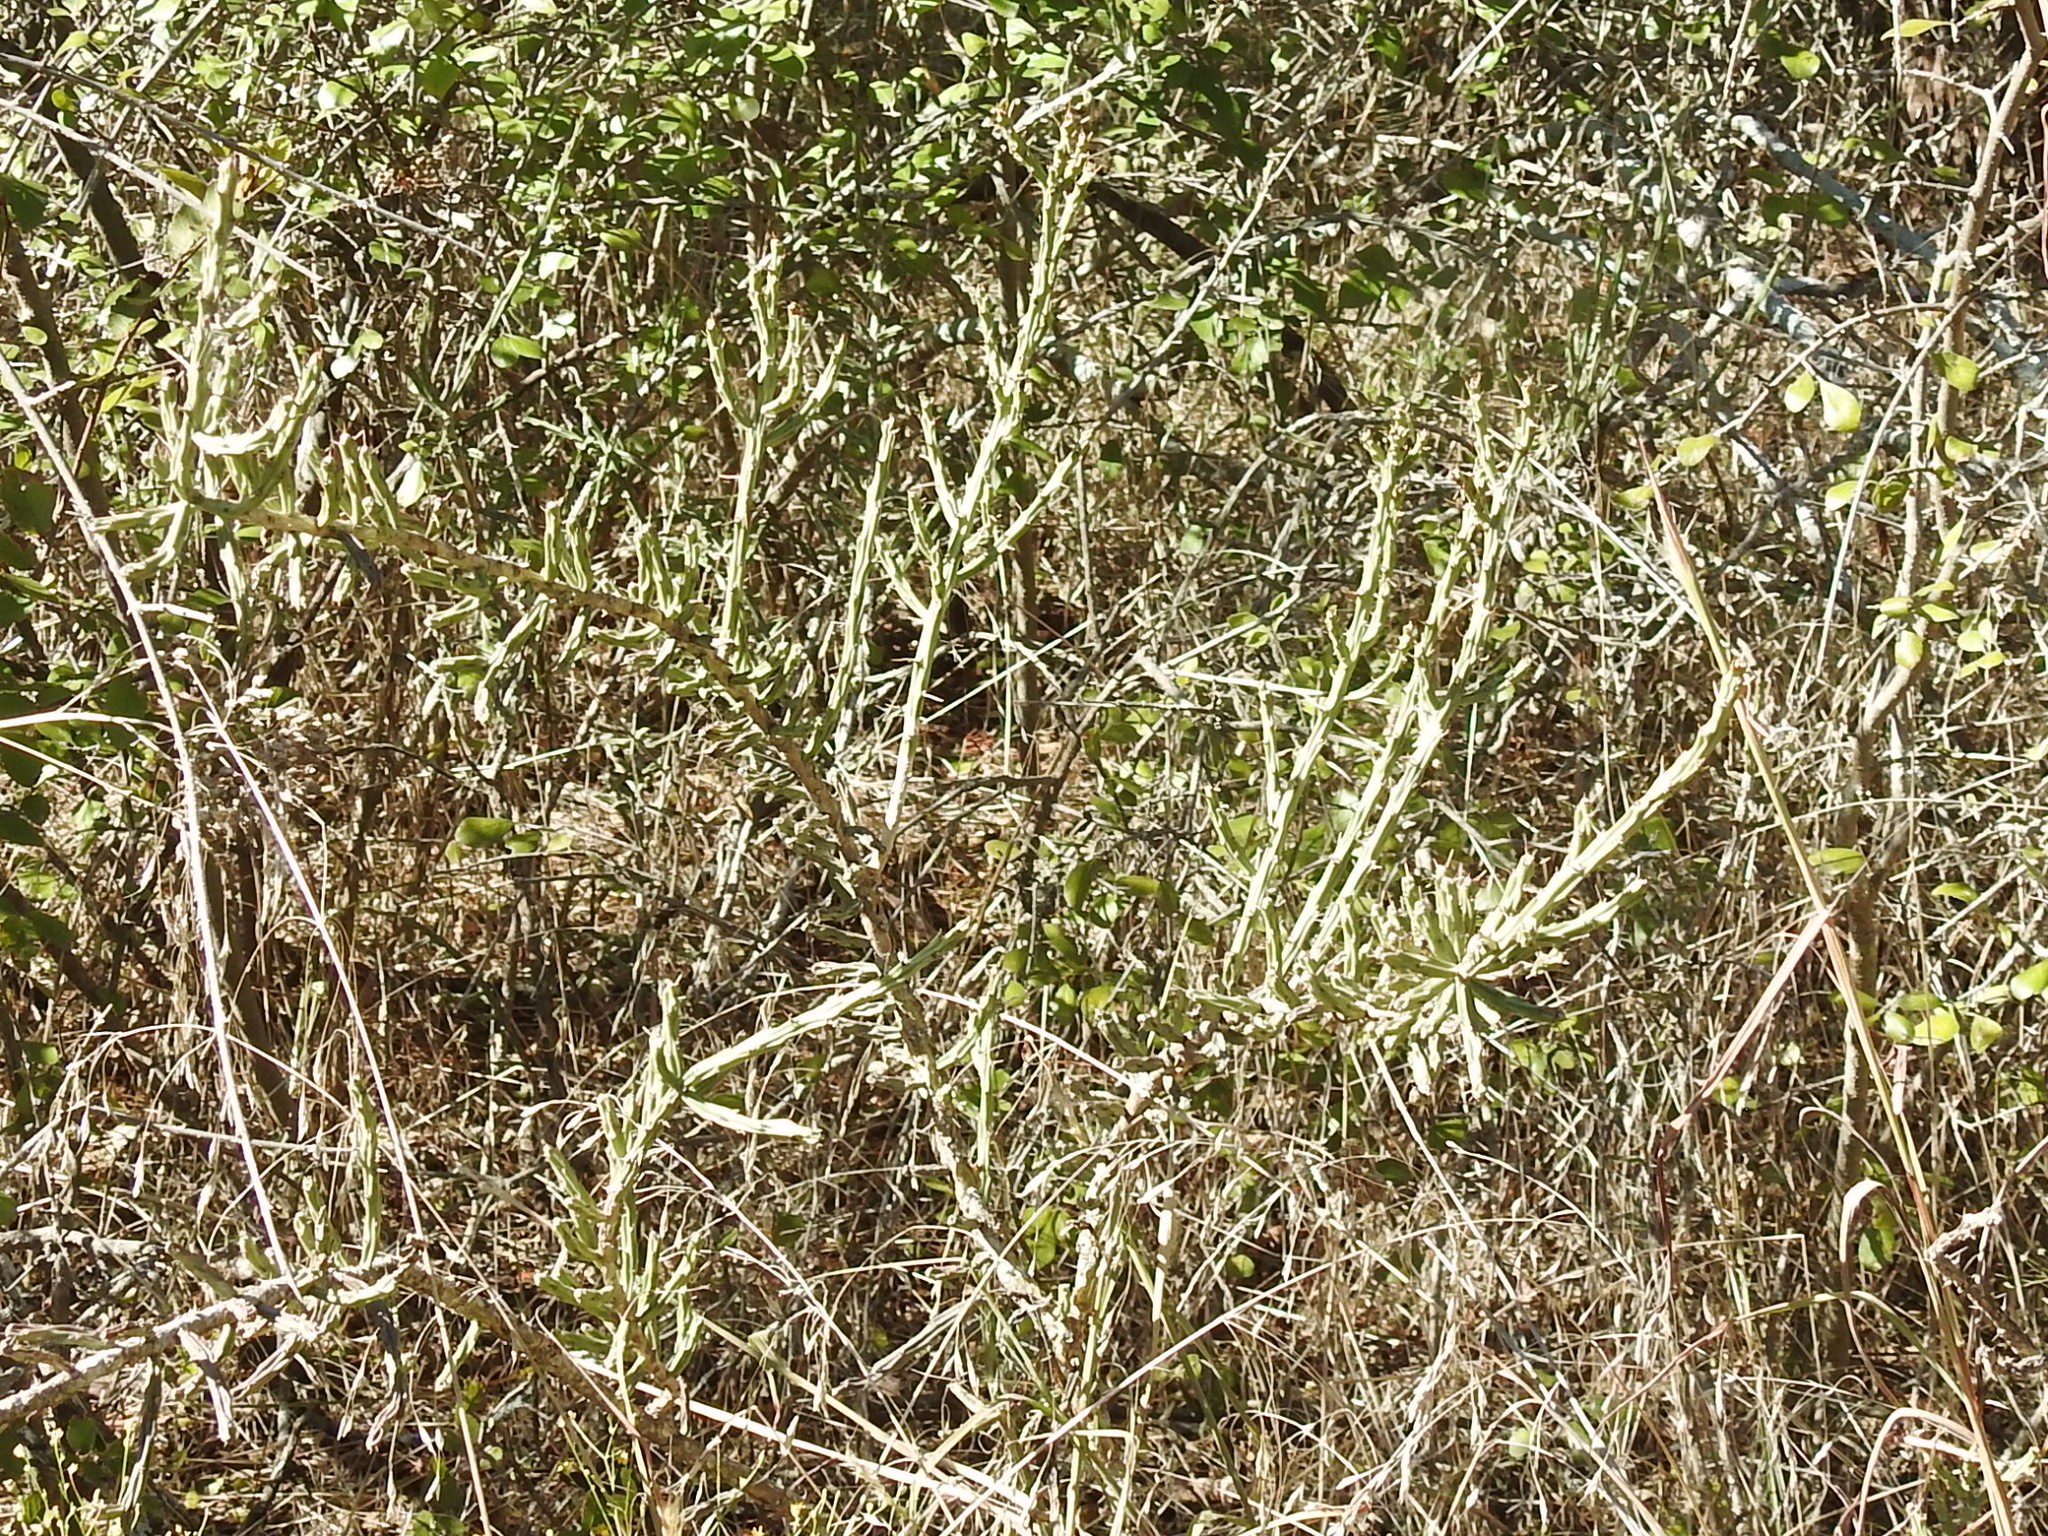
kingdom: Plantae
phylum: Tracheophyta
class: Magnoliopsida
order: Caryophyllales
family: Cactaceae
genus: Cylindropuntia
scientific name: Cylindropuntia leptocaulis
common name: Christmas cactus
